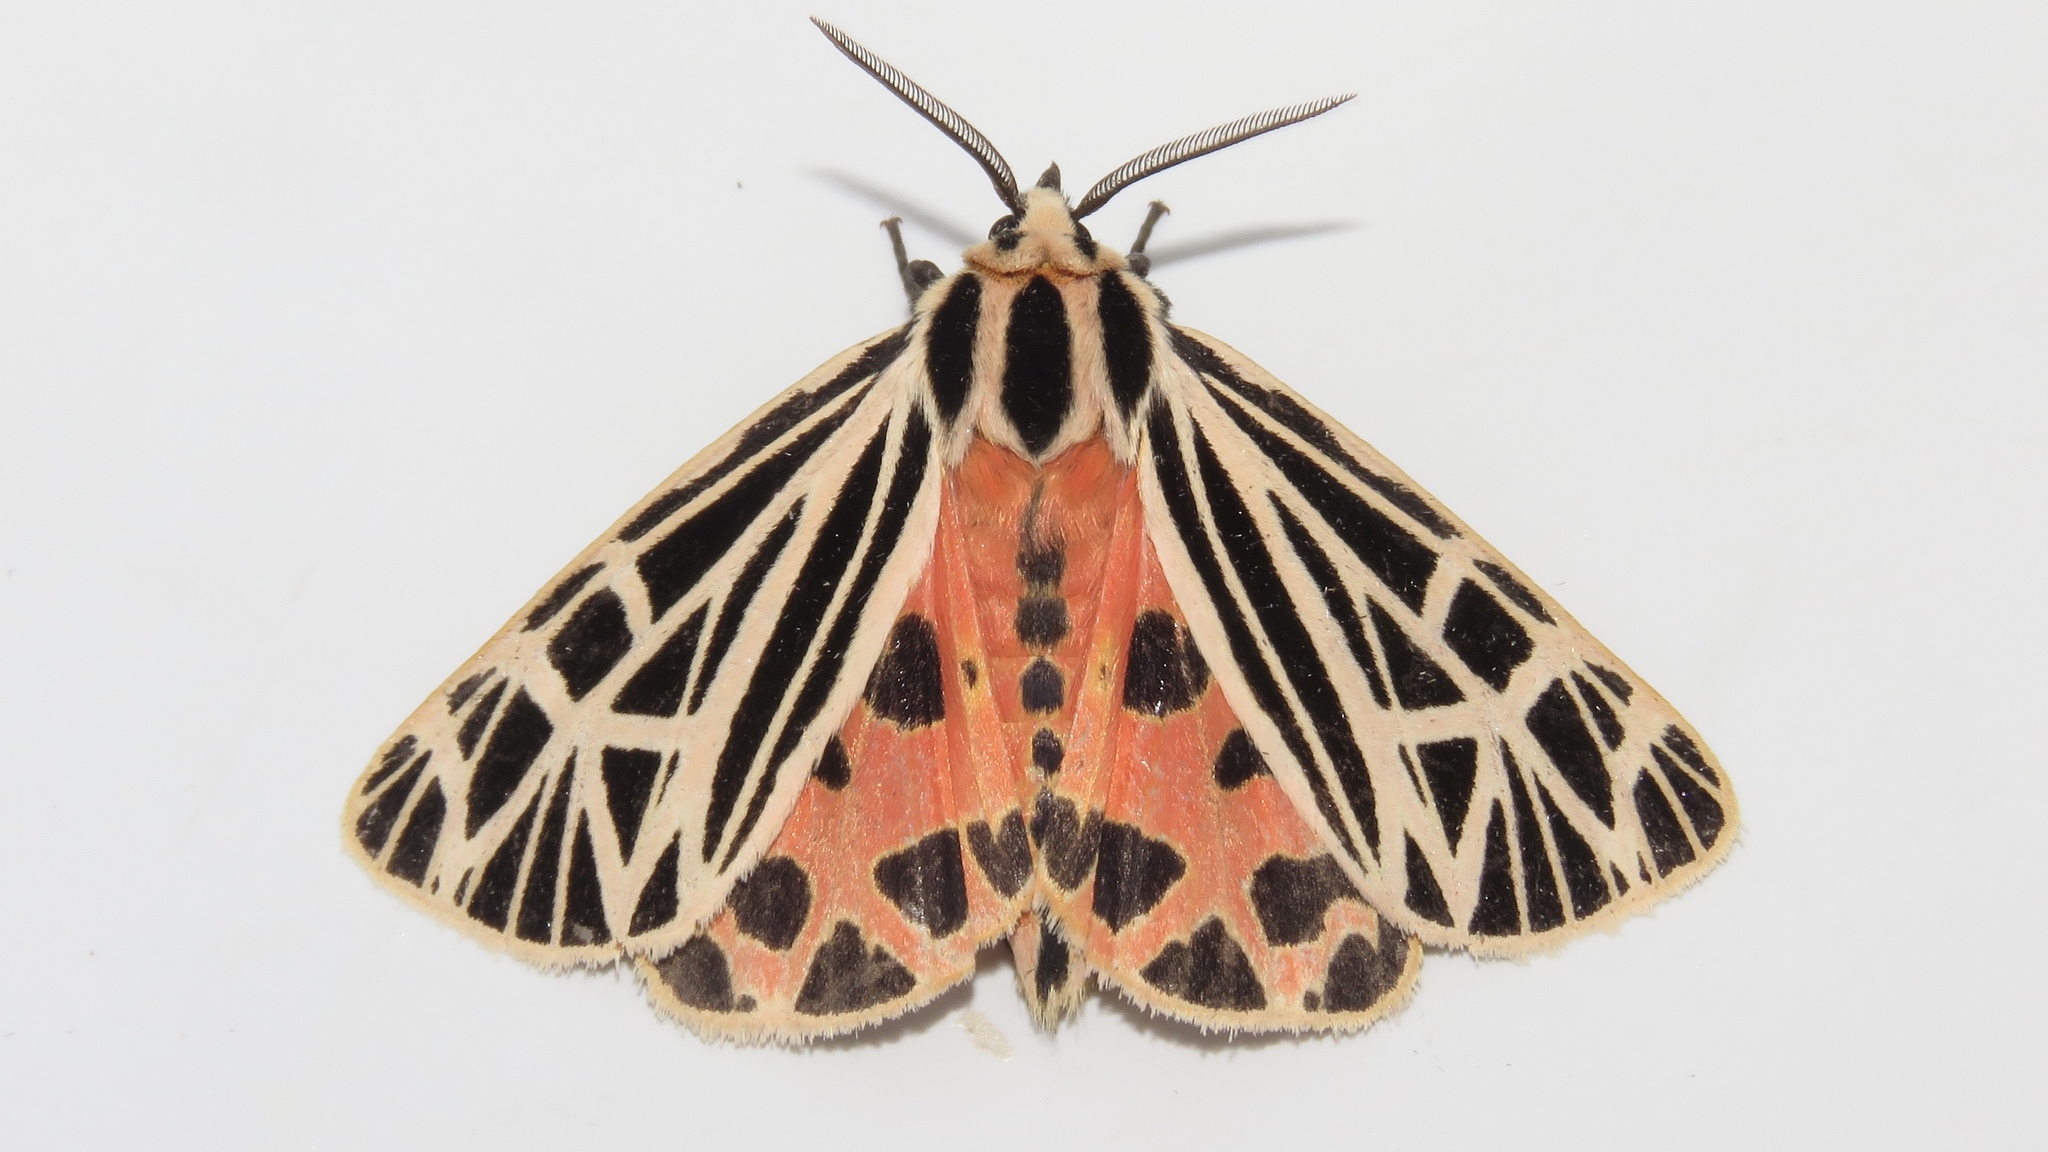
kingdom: Animalia
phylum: Arthropoda
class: Insecta
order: Lepidoptera
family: Erebidae
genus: Grammia
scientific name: Grammia virgo
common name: Virgin tiger moth
